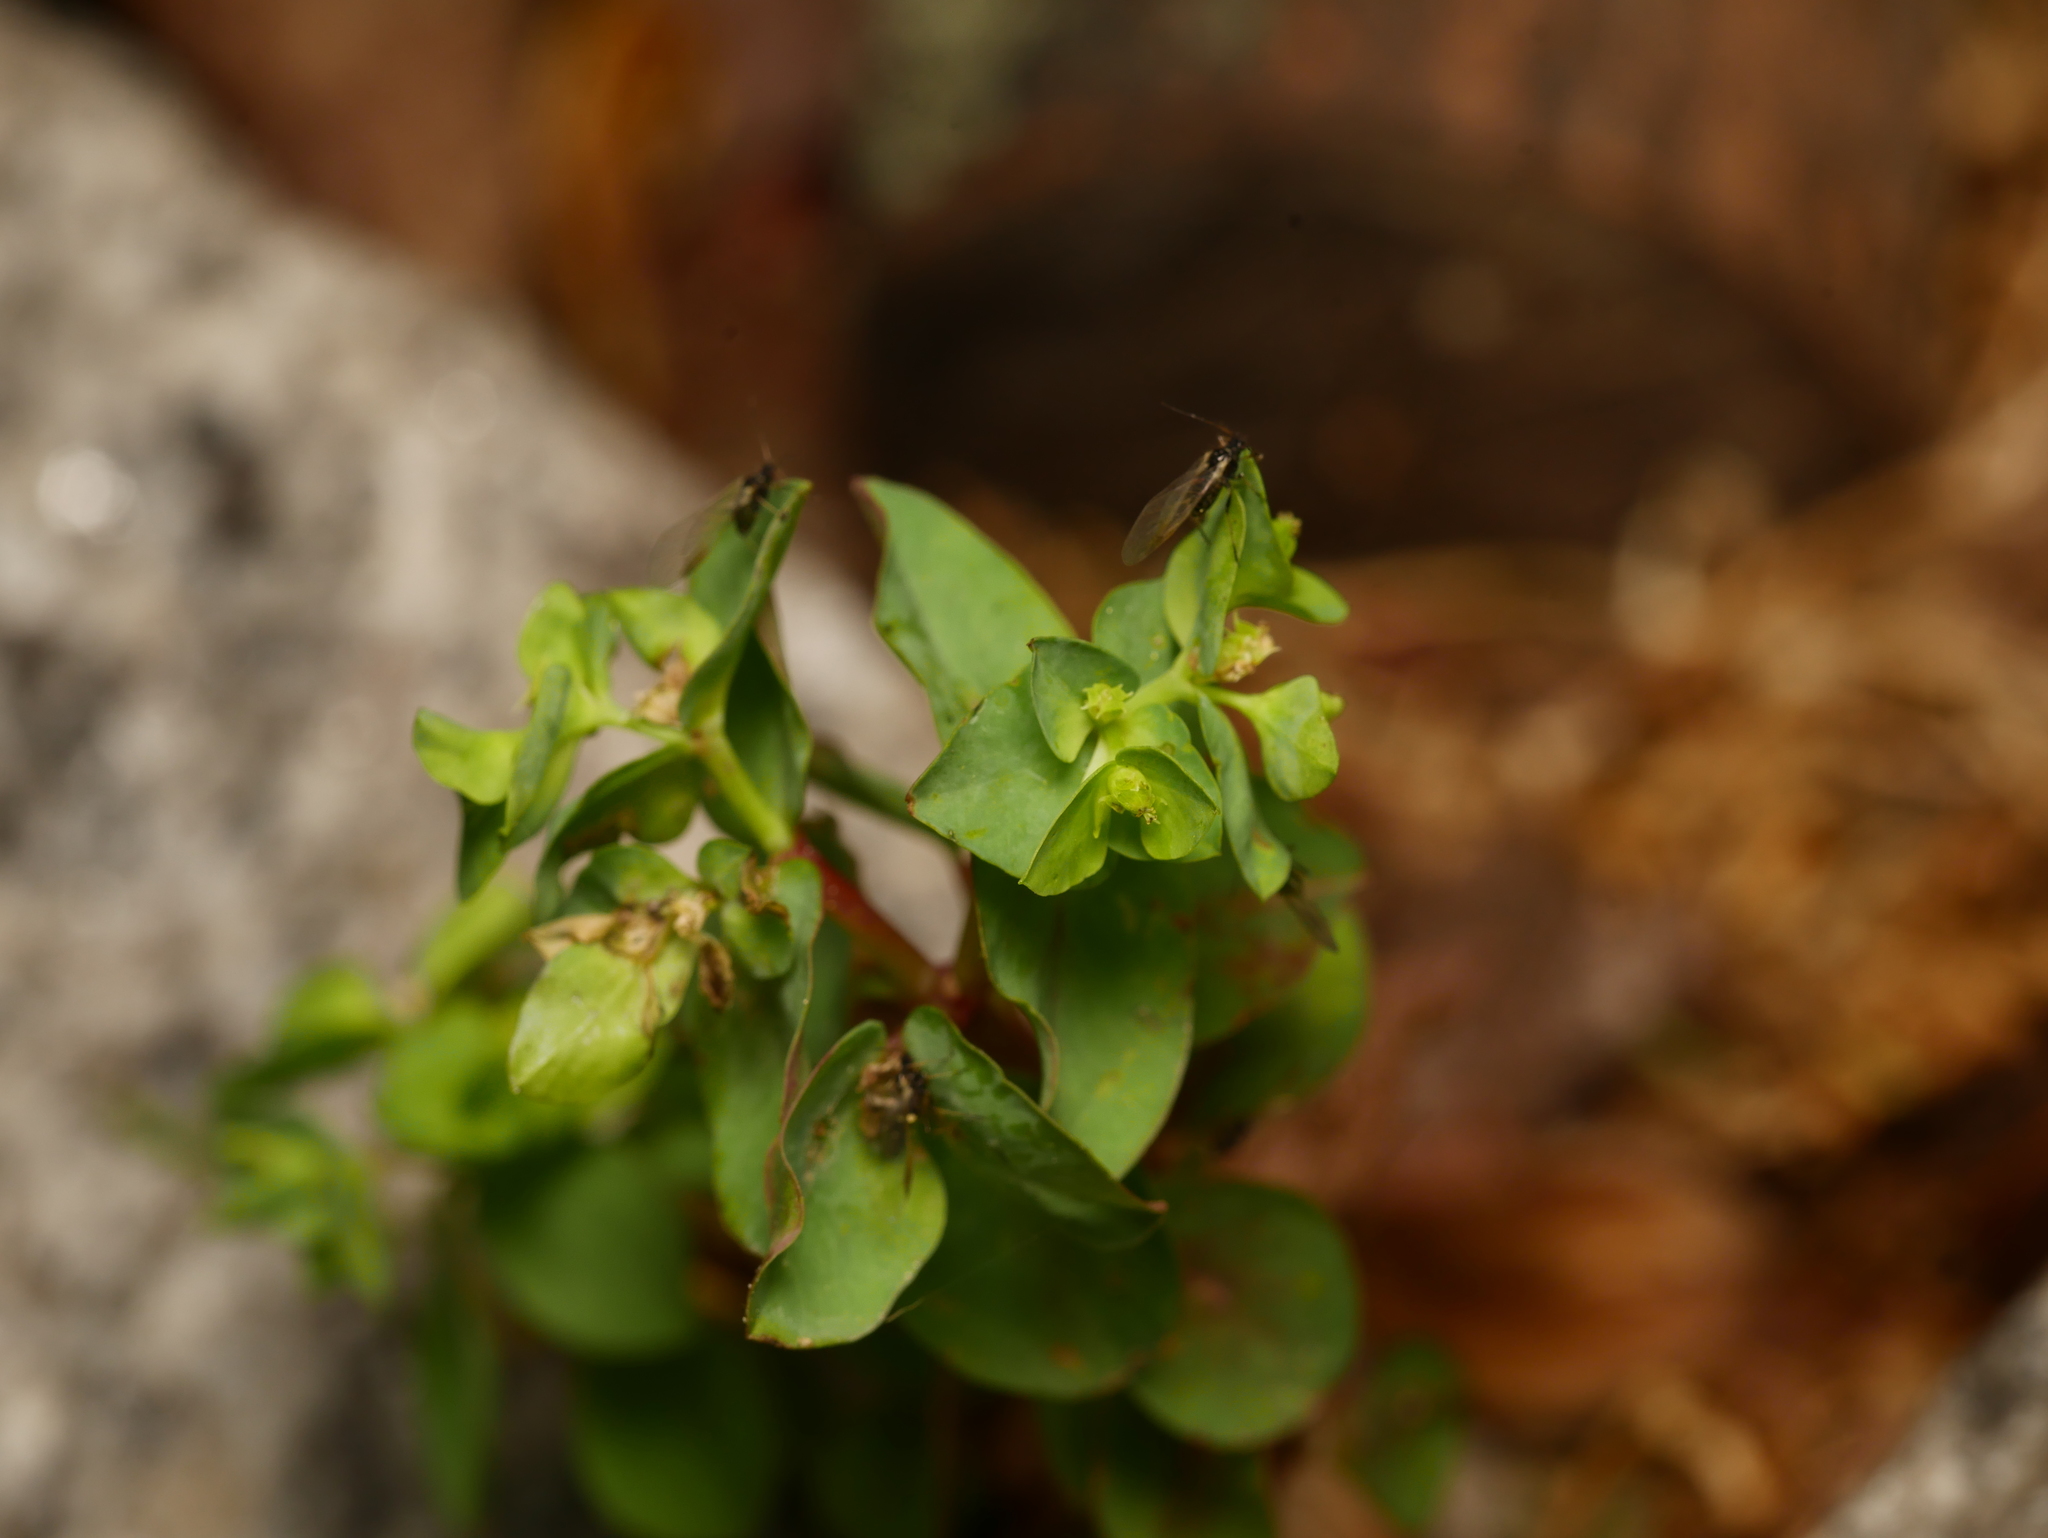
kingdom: Plantae
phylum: Tracheophyta
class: Magnoliopsida
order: Malpighiales
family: Euphorbiaceae
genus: Euphorbia
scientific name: Euphorbia peplus
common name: Petty spurge
